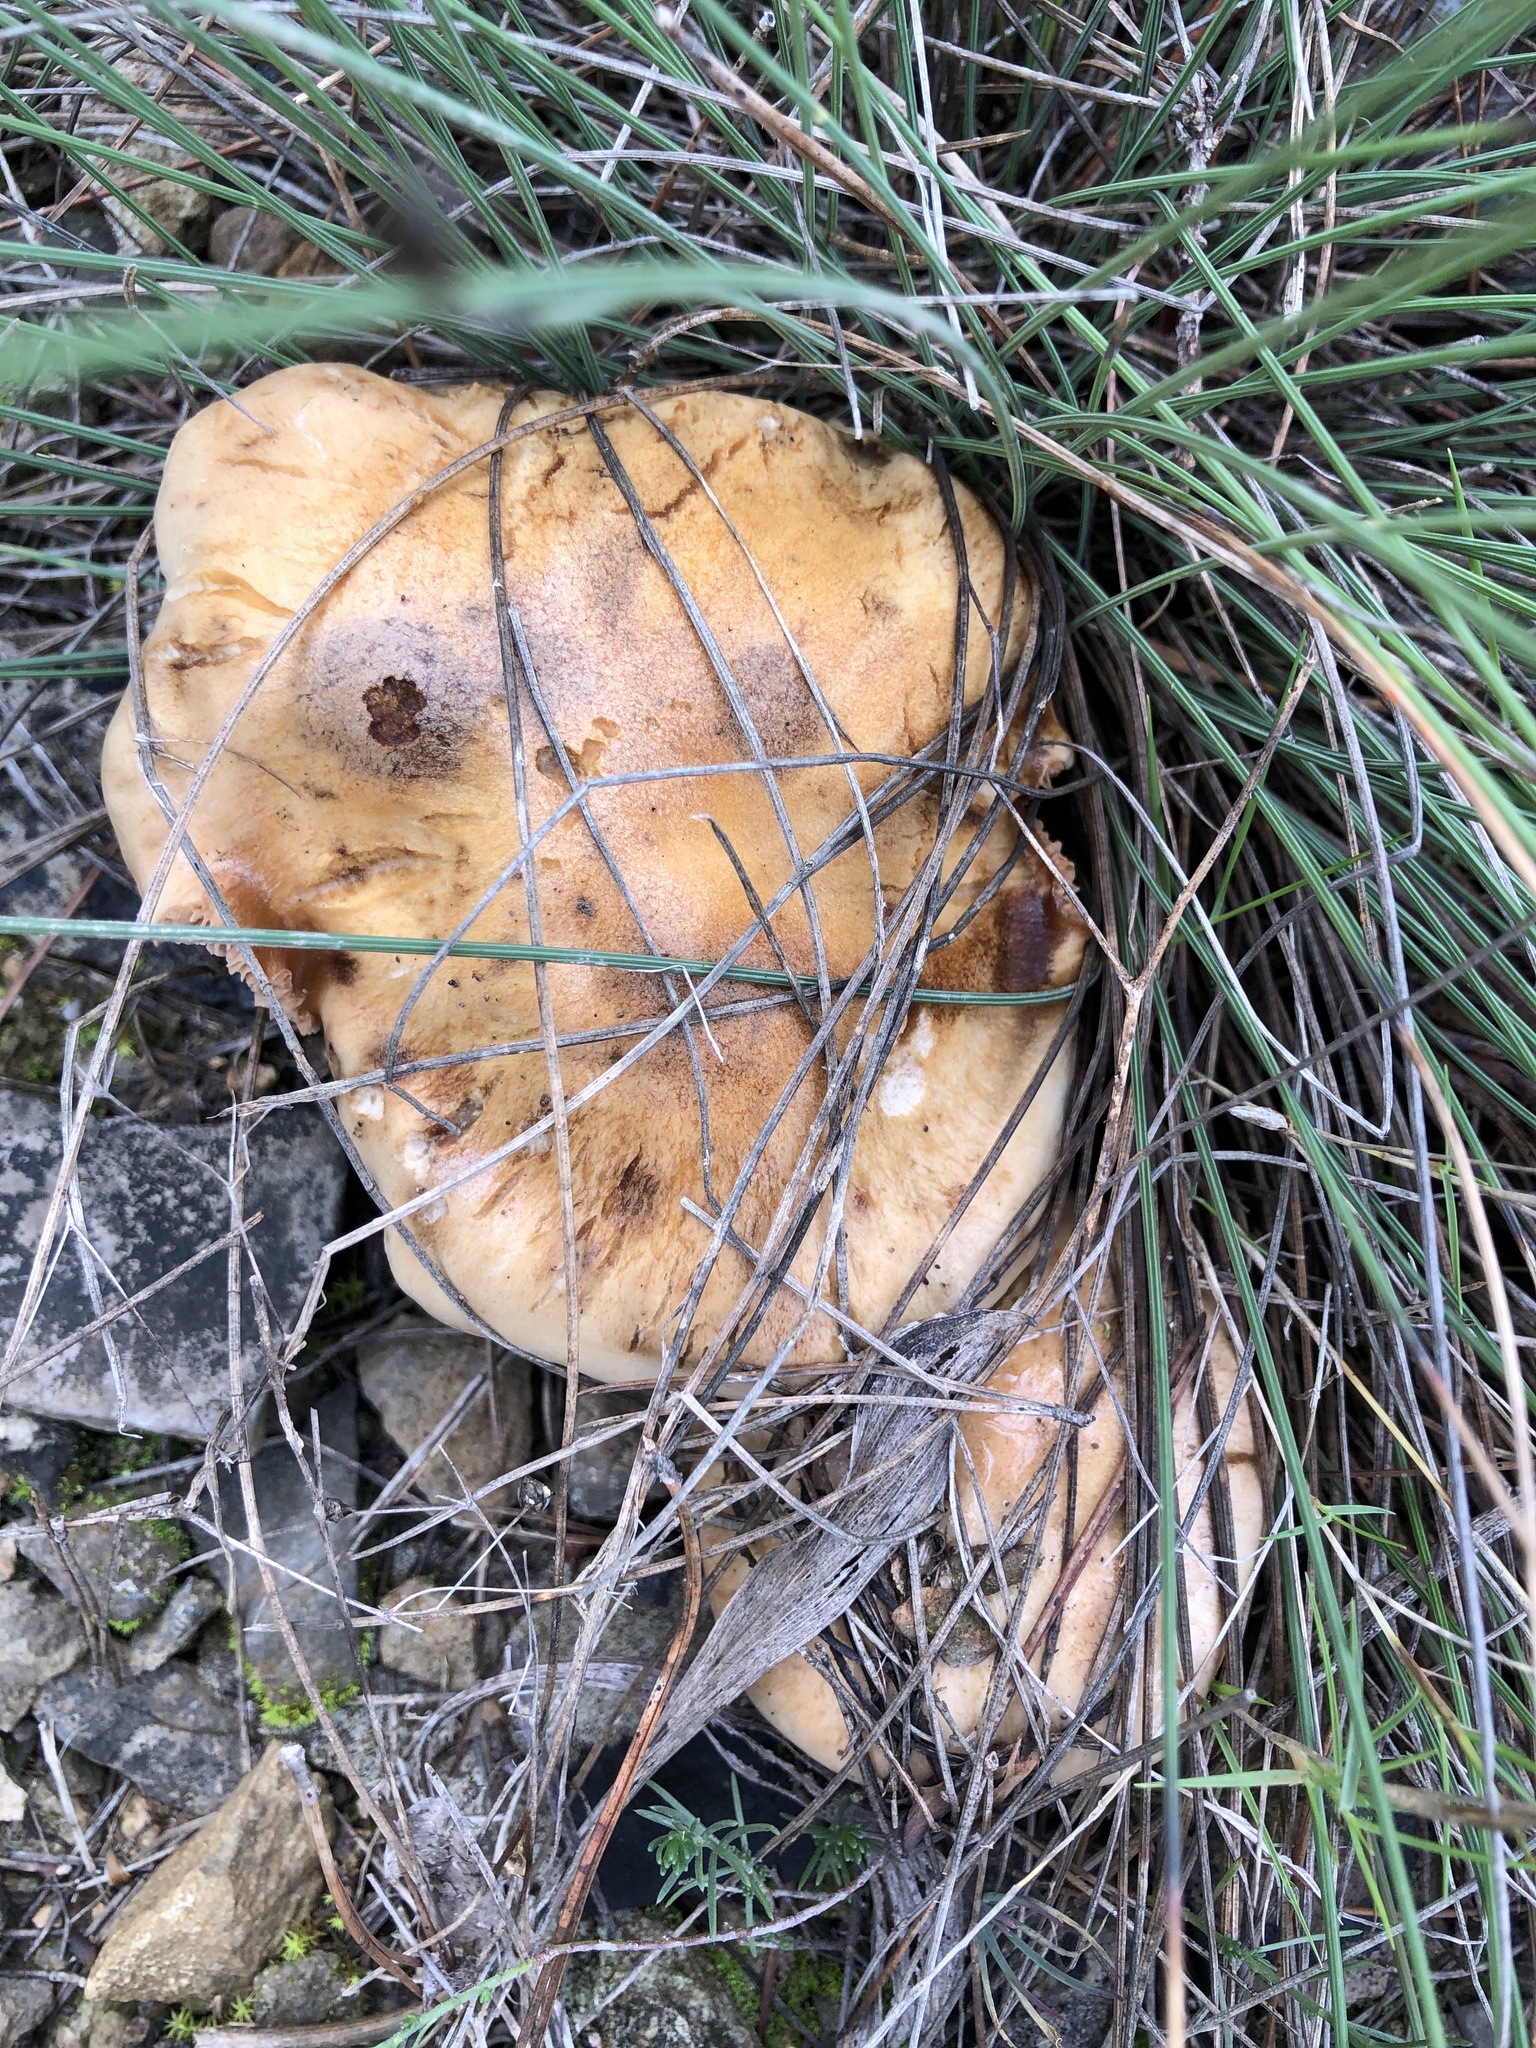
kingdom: Fungi
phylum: Basidiomycota
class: Agaricomycetes
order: Agaricales
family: Hymenogastraceae
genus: Hebeloma
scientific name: Hebeloma laterinum
